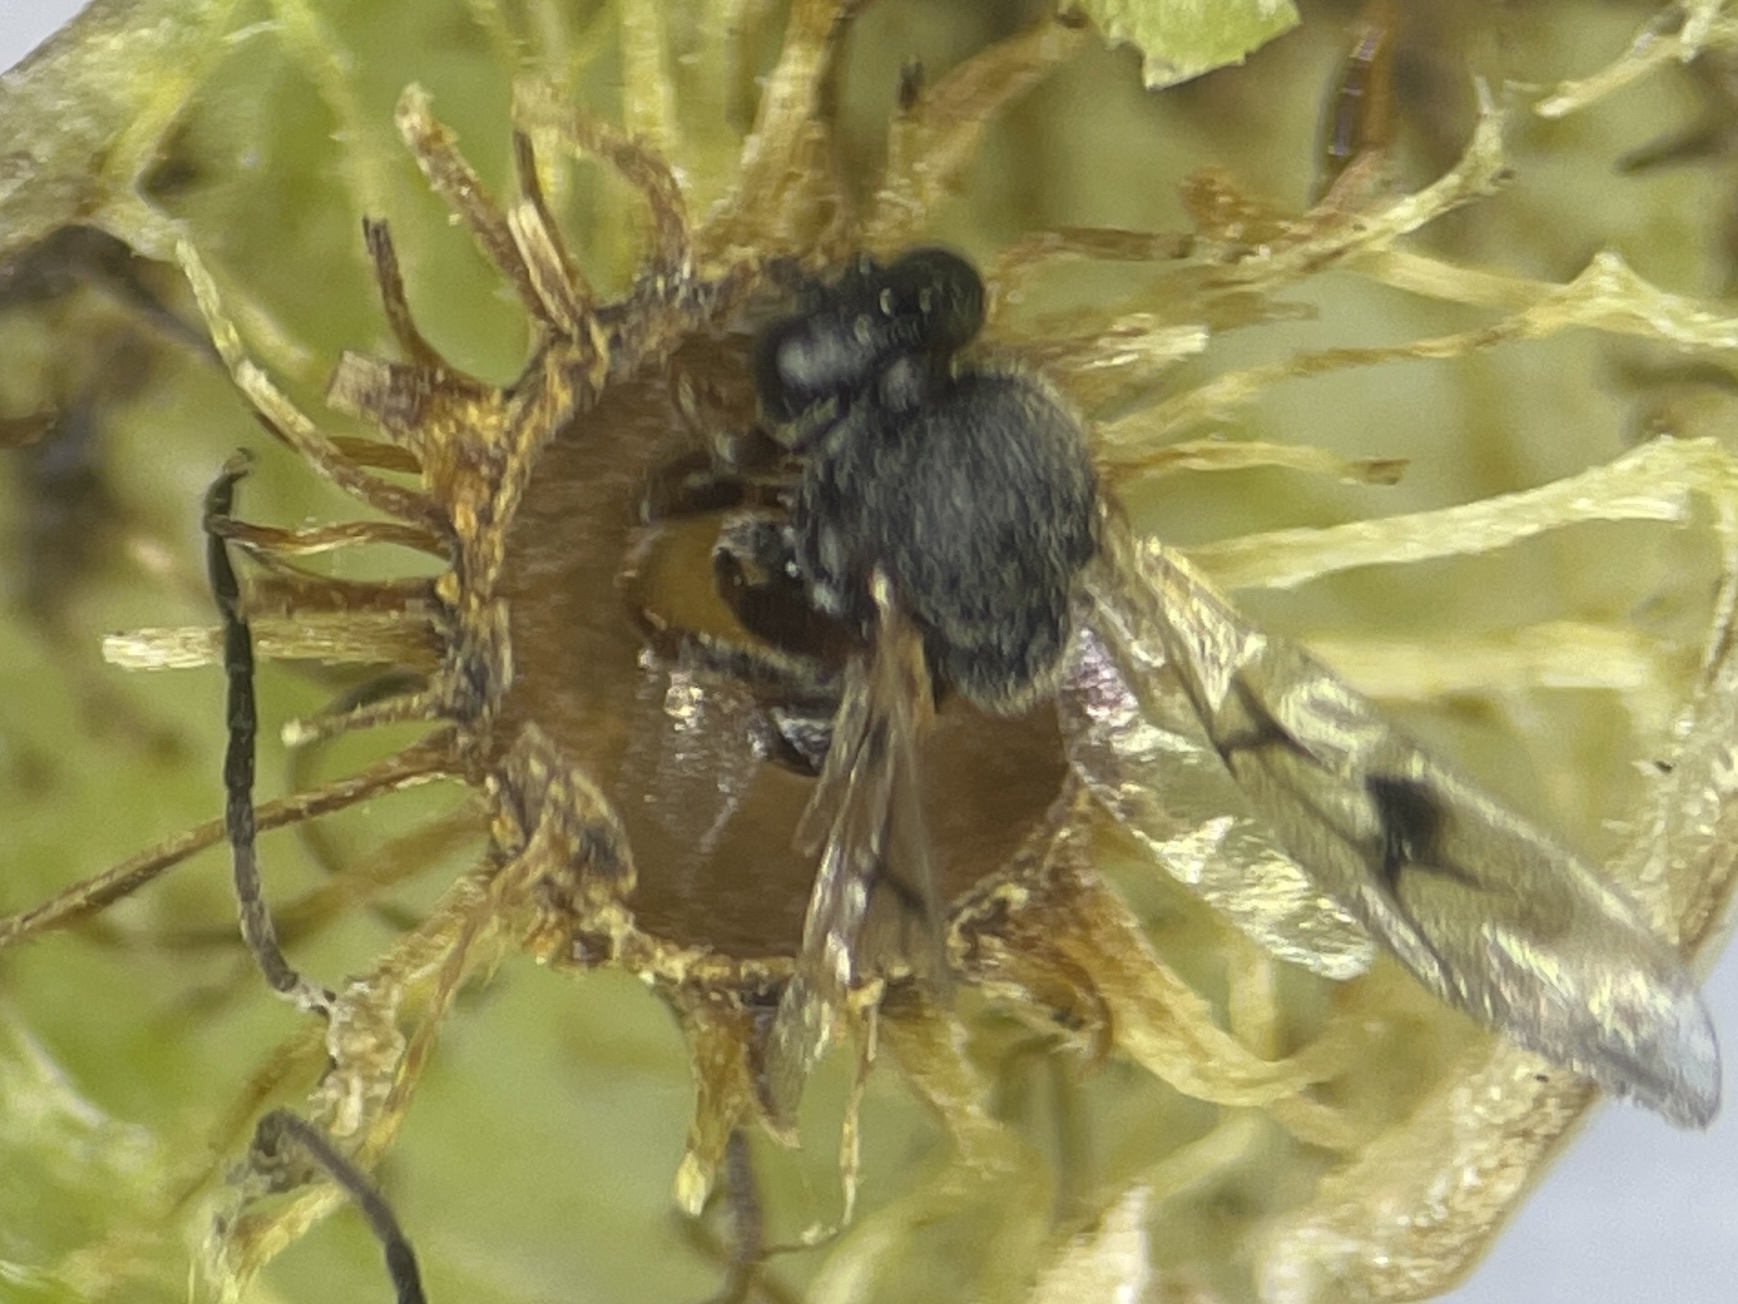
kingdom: Animalia
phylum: Arthropoda
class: Insecta
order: Hymenoptera
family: Cynipidae
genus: Amphibolips
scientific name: Amphibolips
